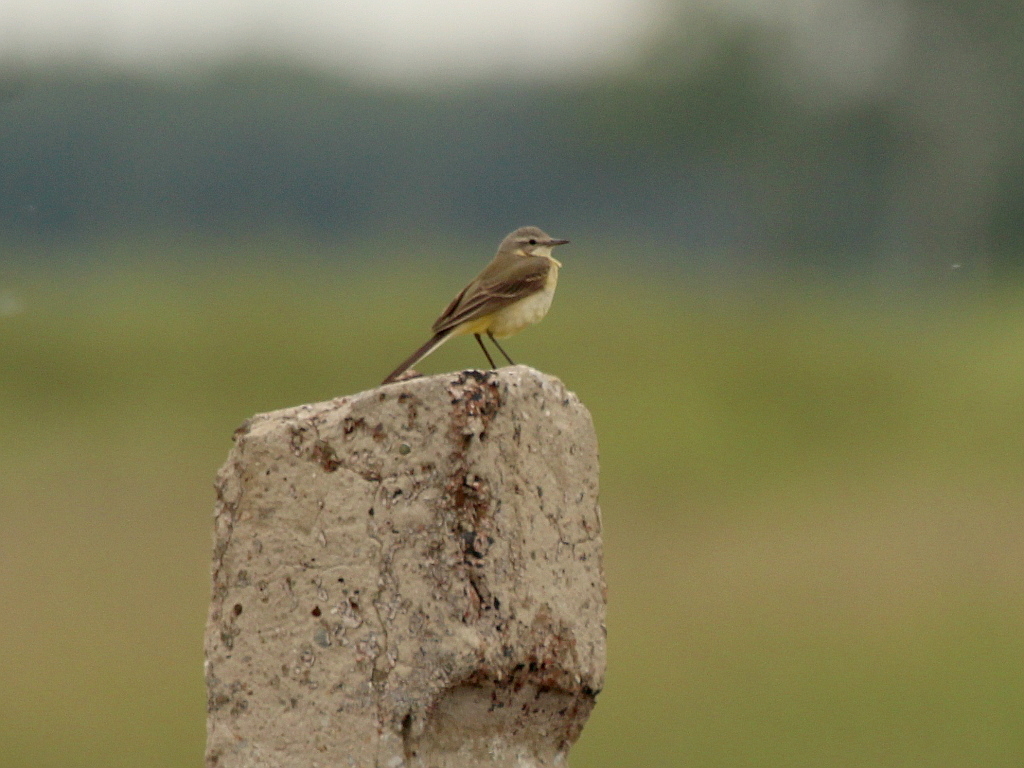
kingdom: Animalia
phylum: Chordata
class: Aves
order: Passeriformes
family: Motacillidae
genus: Motacilla
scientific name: Motacilla flava
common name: Western yellow wagtail
